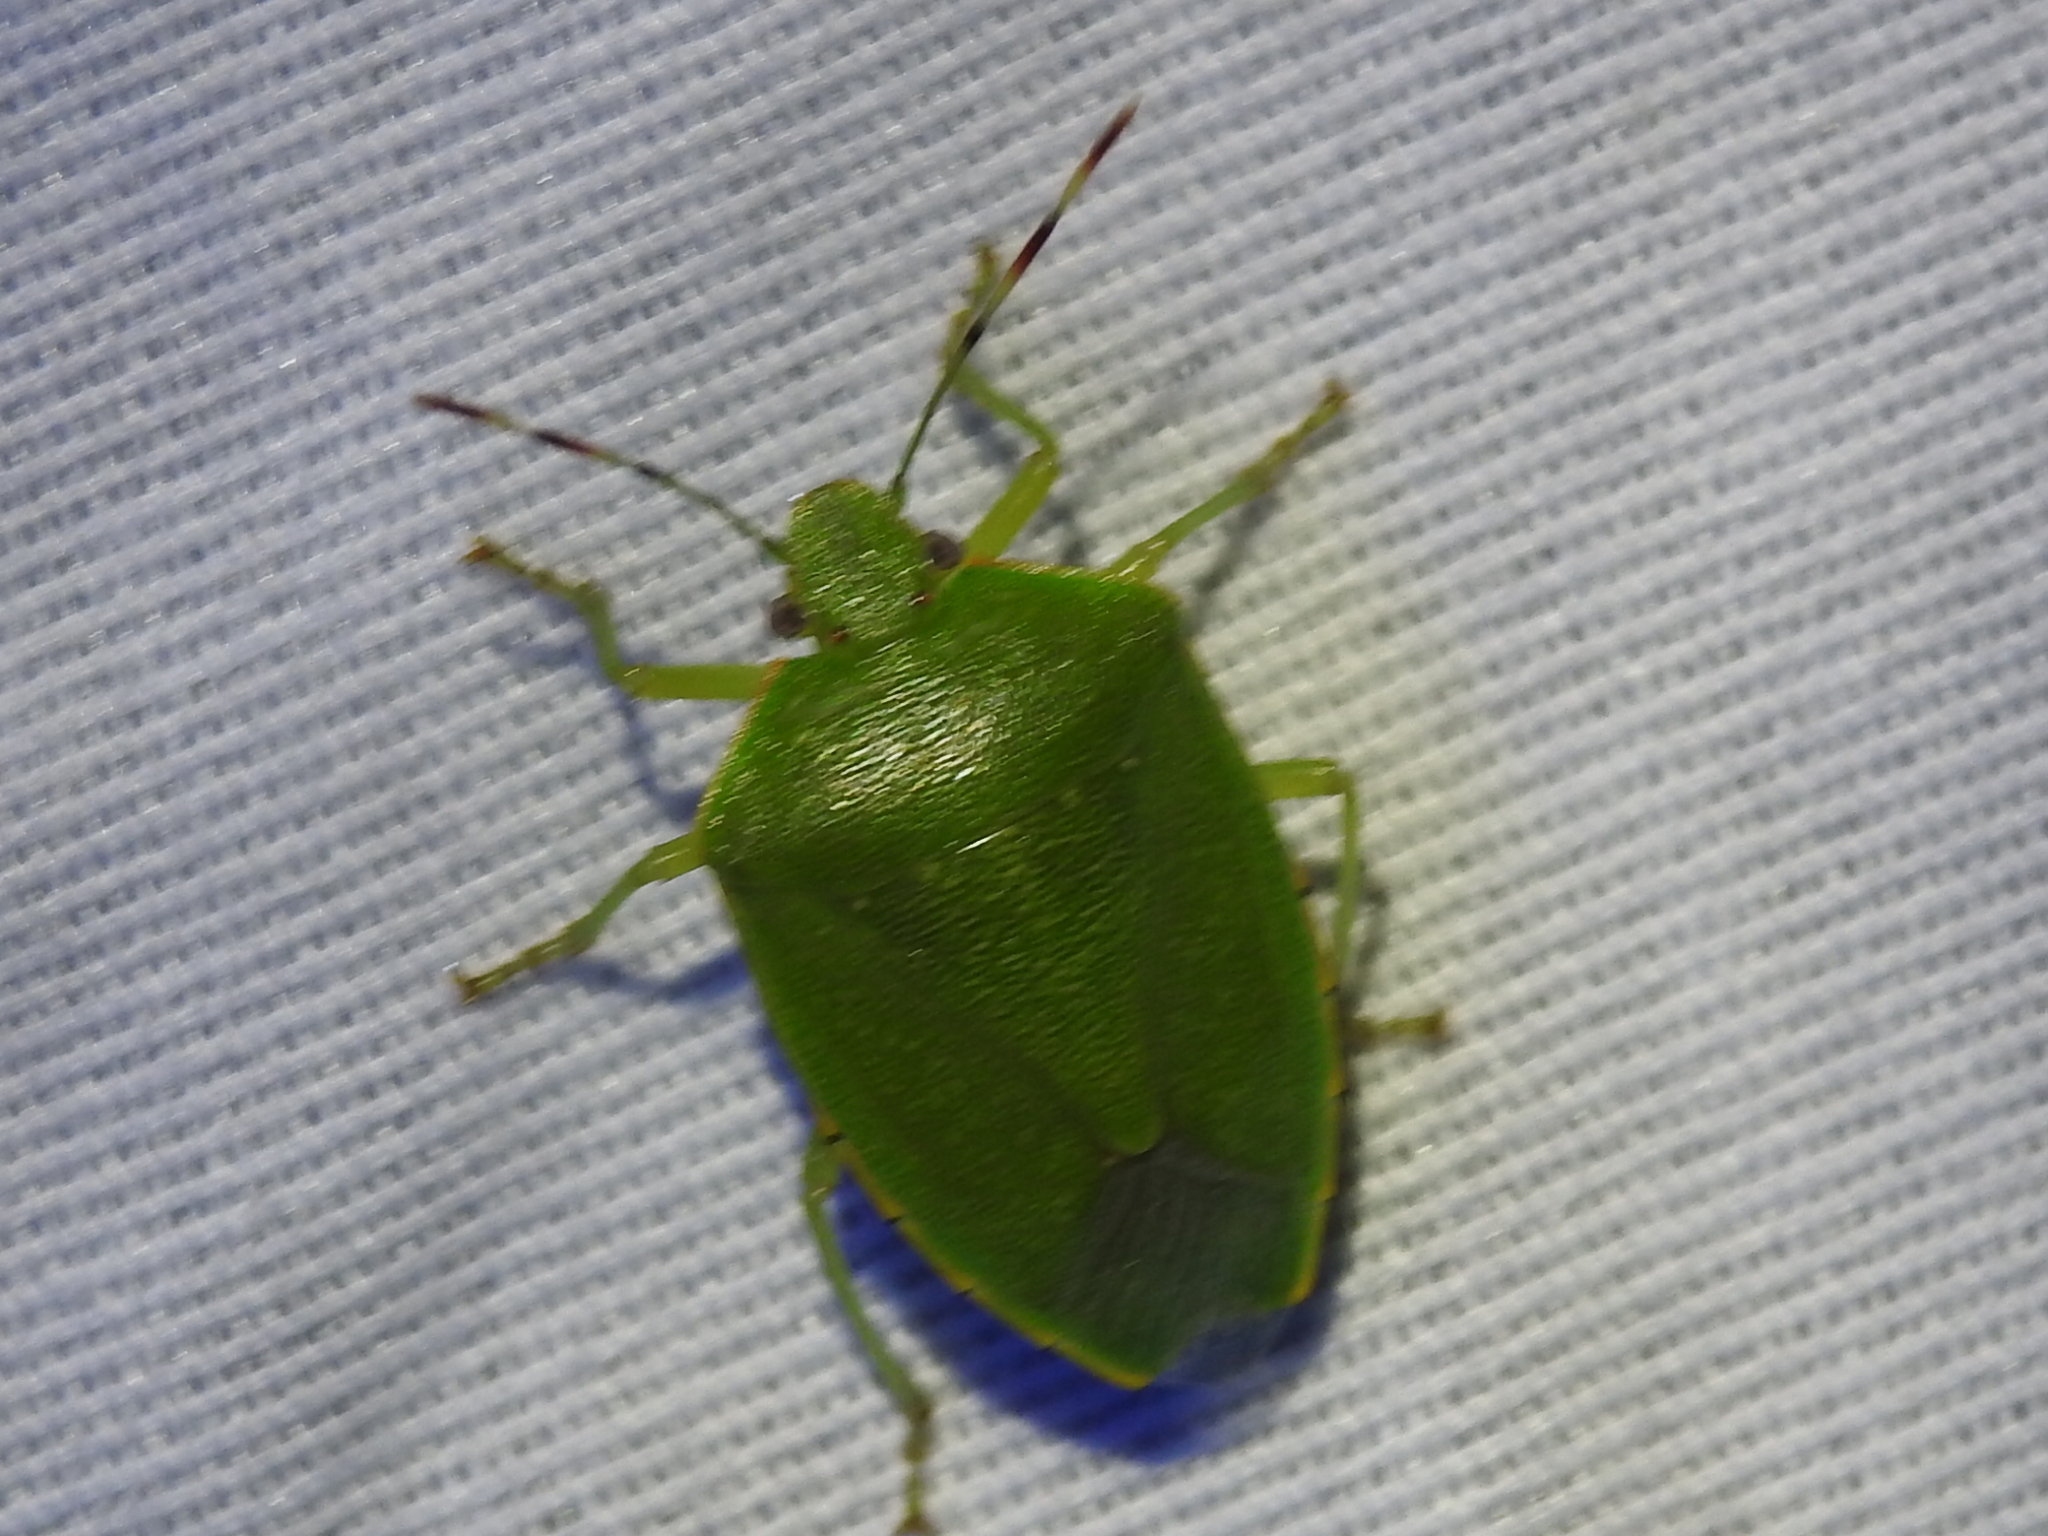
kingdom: Animalia
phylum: Arthropoda
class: Insecta
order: Hemiptera
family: Pentatomidae
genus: Chinavia
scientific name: Chinavia hilaris
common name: Green stink bug
